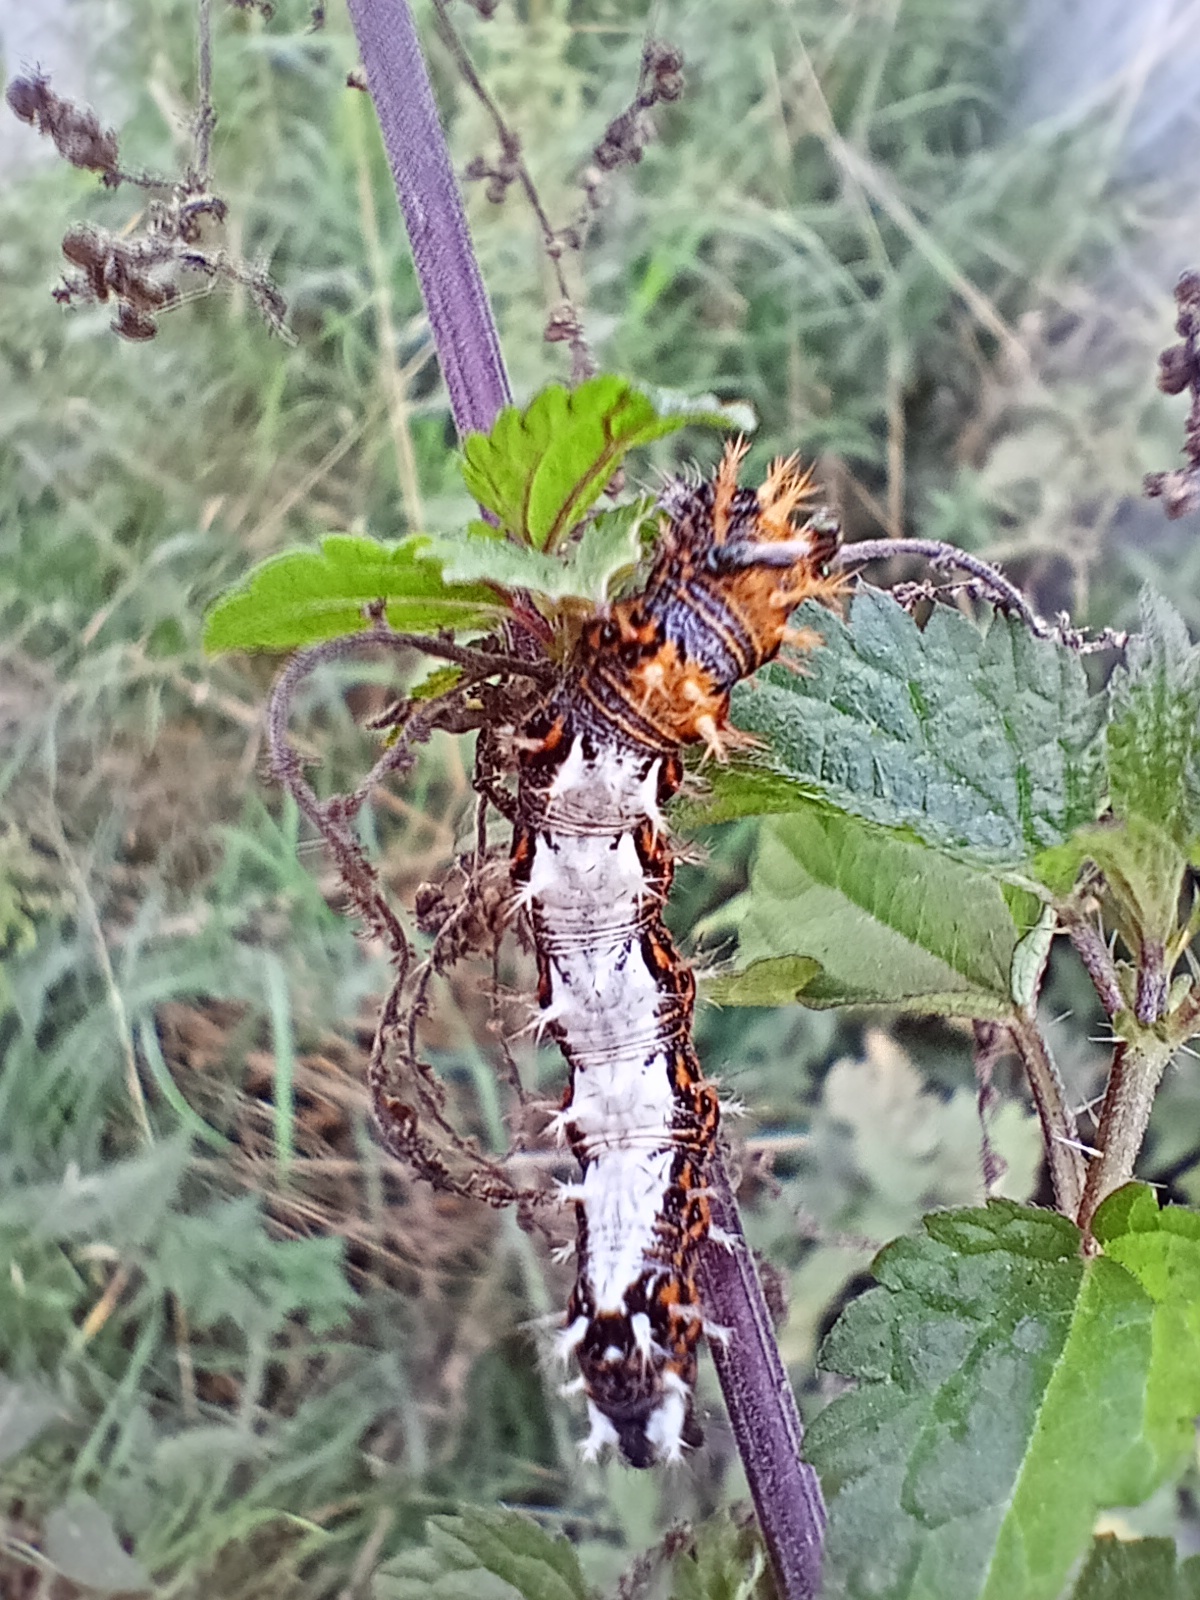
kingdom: Animalia
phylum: Arthropoda
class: Insecta
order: Lepidoptera
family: Nymphalidae
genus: Polygonia
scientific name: Polygonia c-album
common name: Comma
